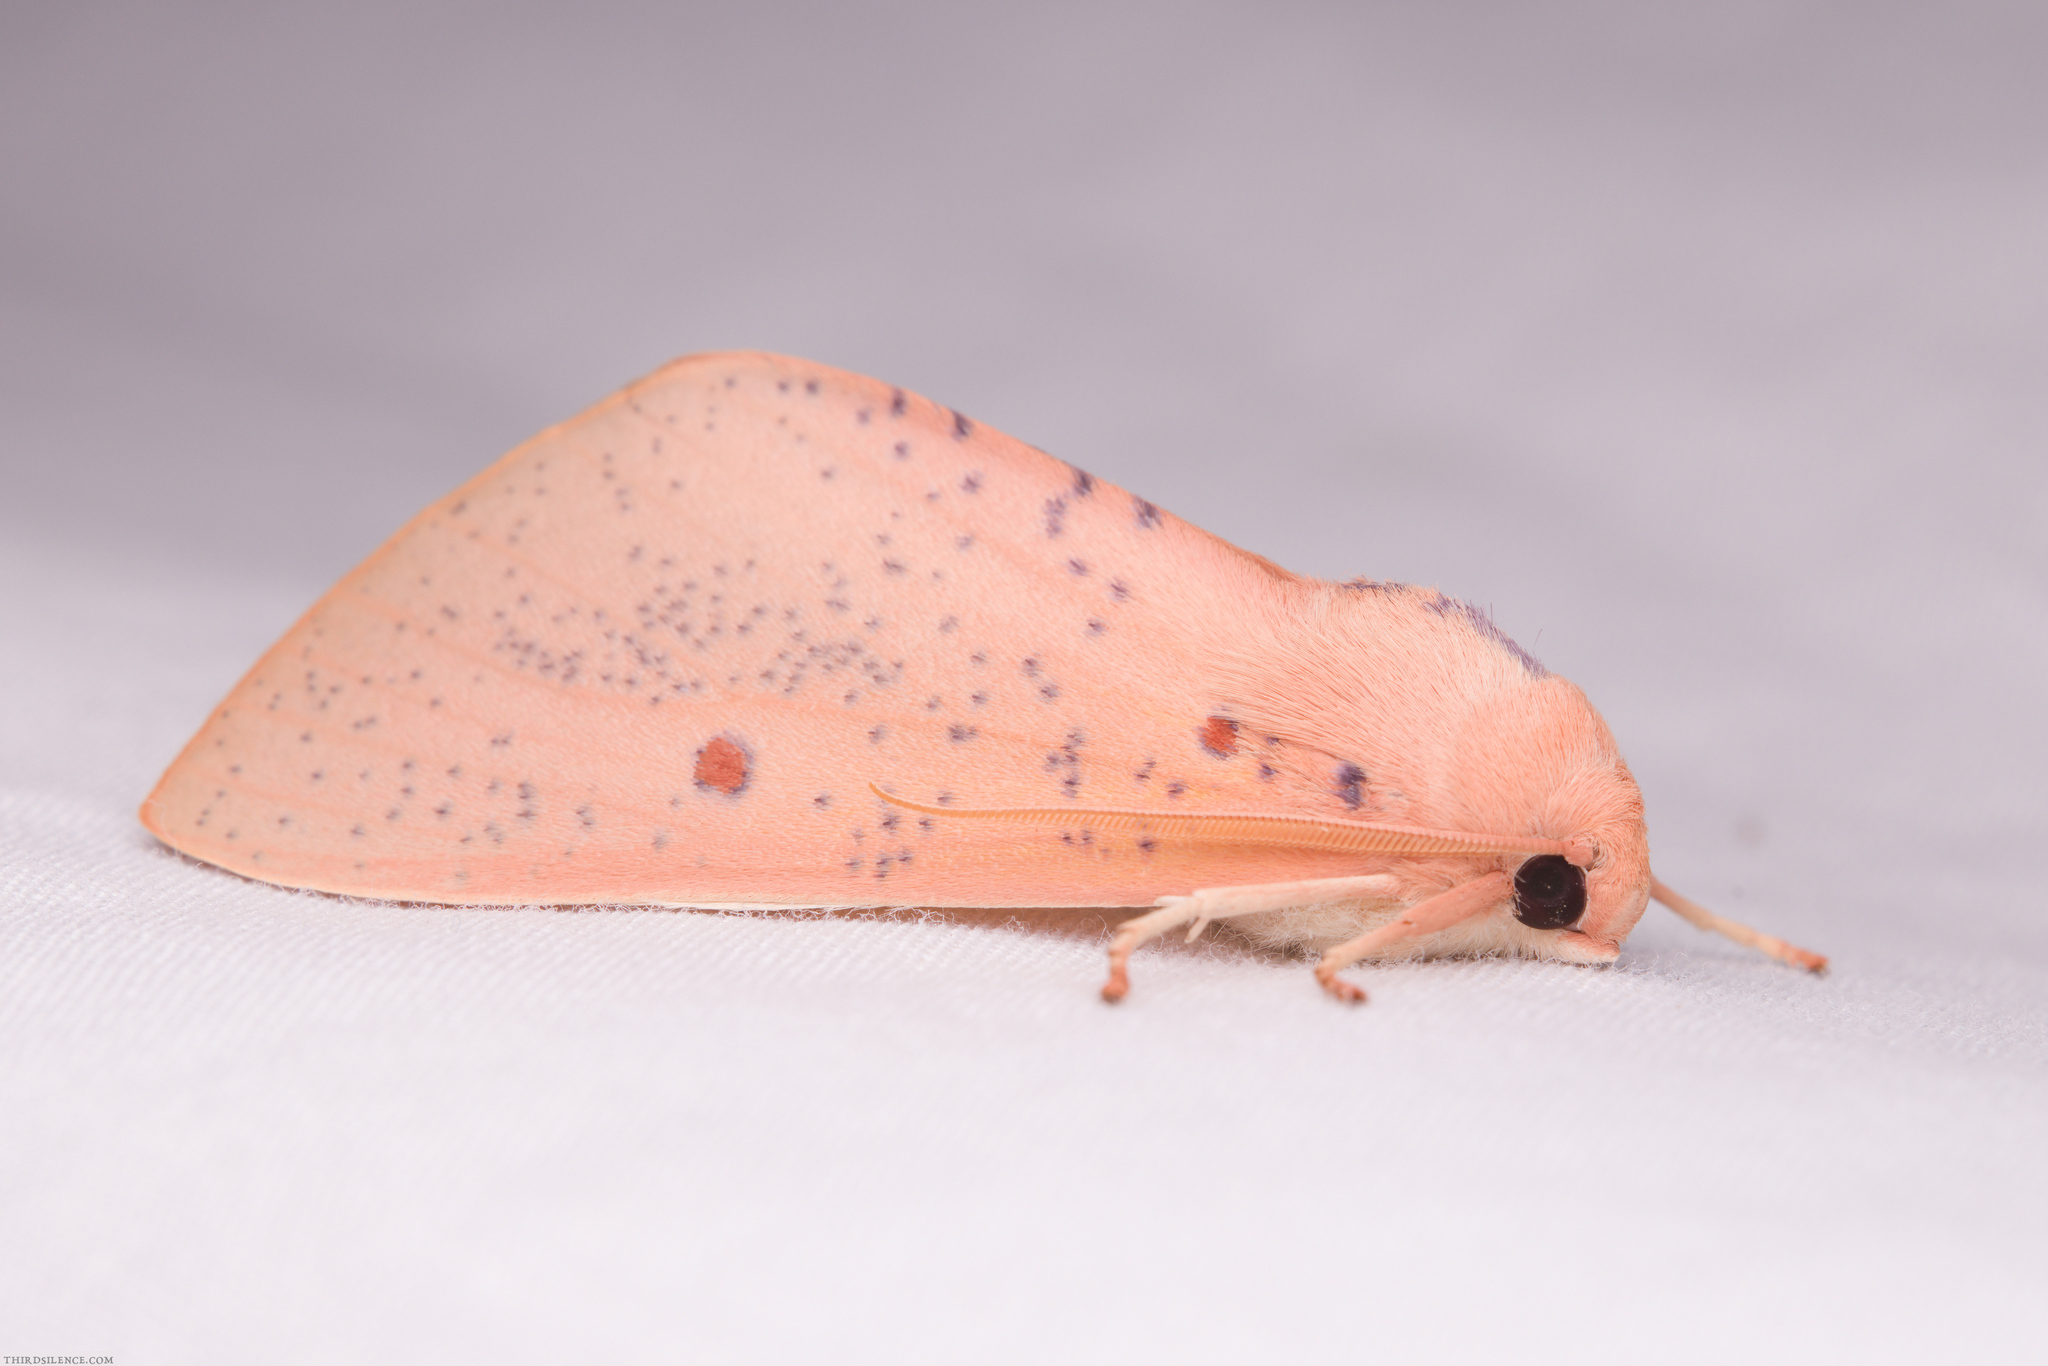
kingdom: Animalia
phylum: Arthropoda
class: Insecta
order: Lepidoptera
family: Geometridae
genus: Plesanemma
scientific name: Plesanemma fucata
